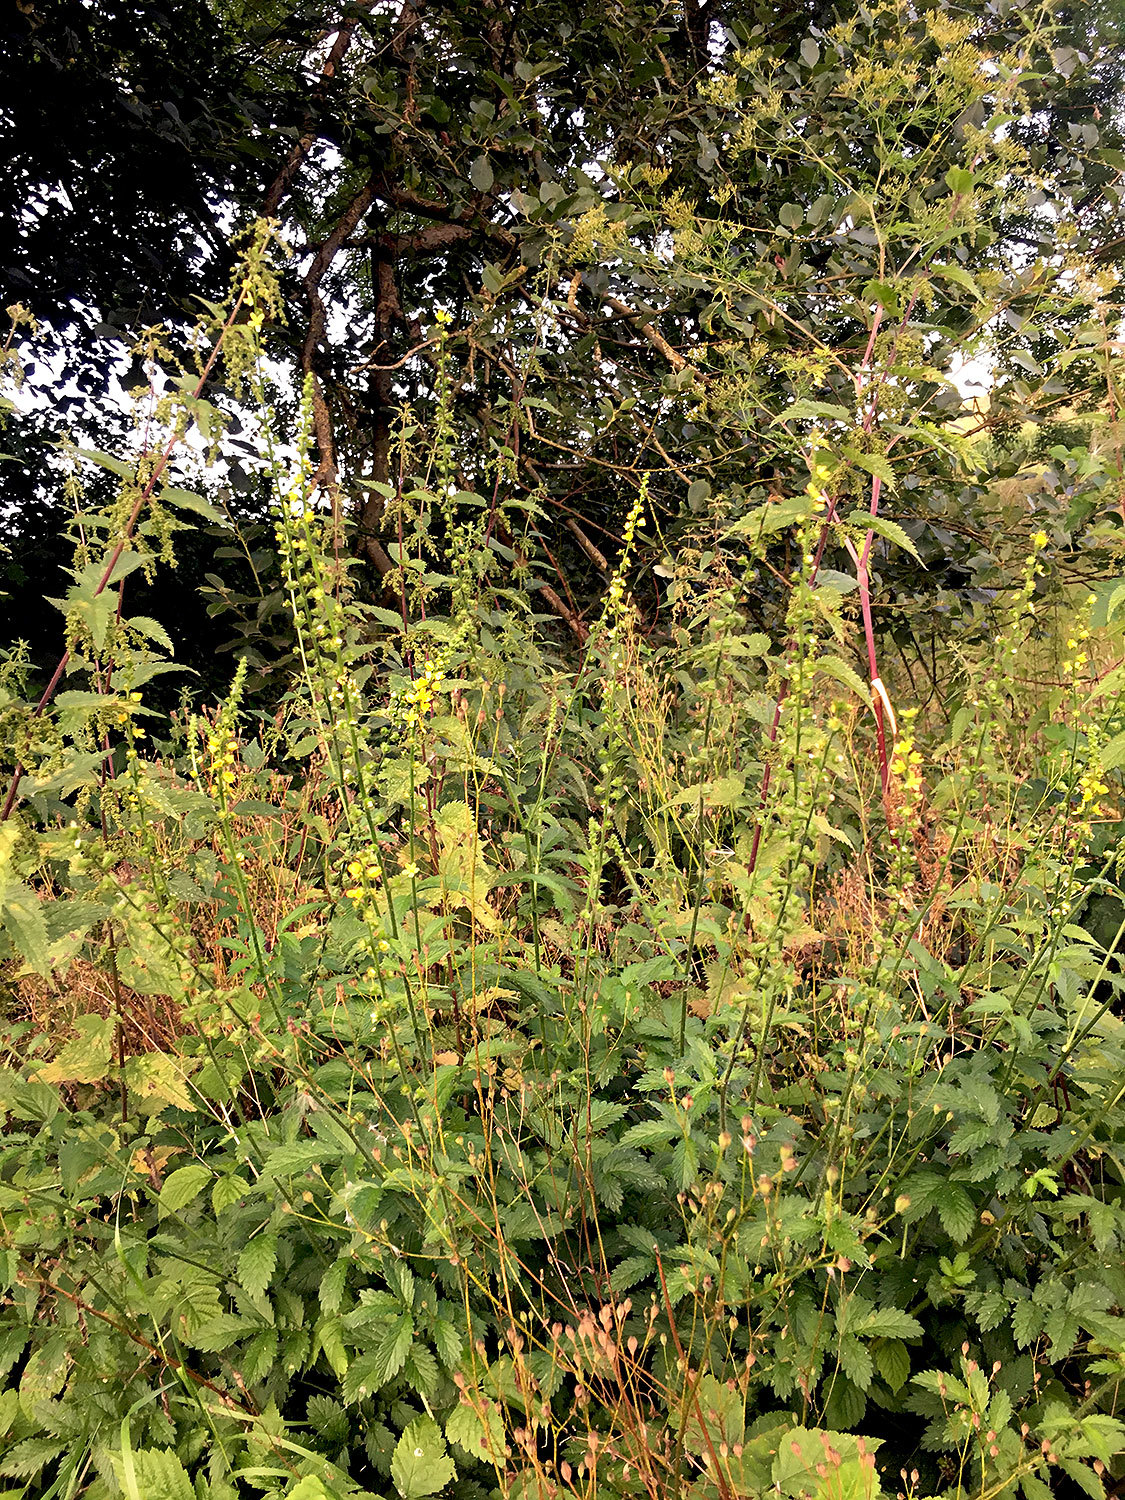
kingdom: Plantae
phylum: Tracheophyta
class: Magnoliopsida
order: Rosales
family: Rosaceae
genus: Agrimonia
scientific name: Agrimonia eupatoria
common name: Agrimony
